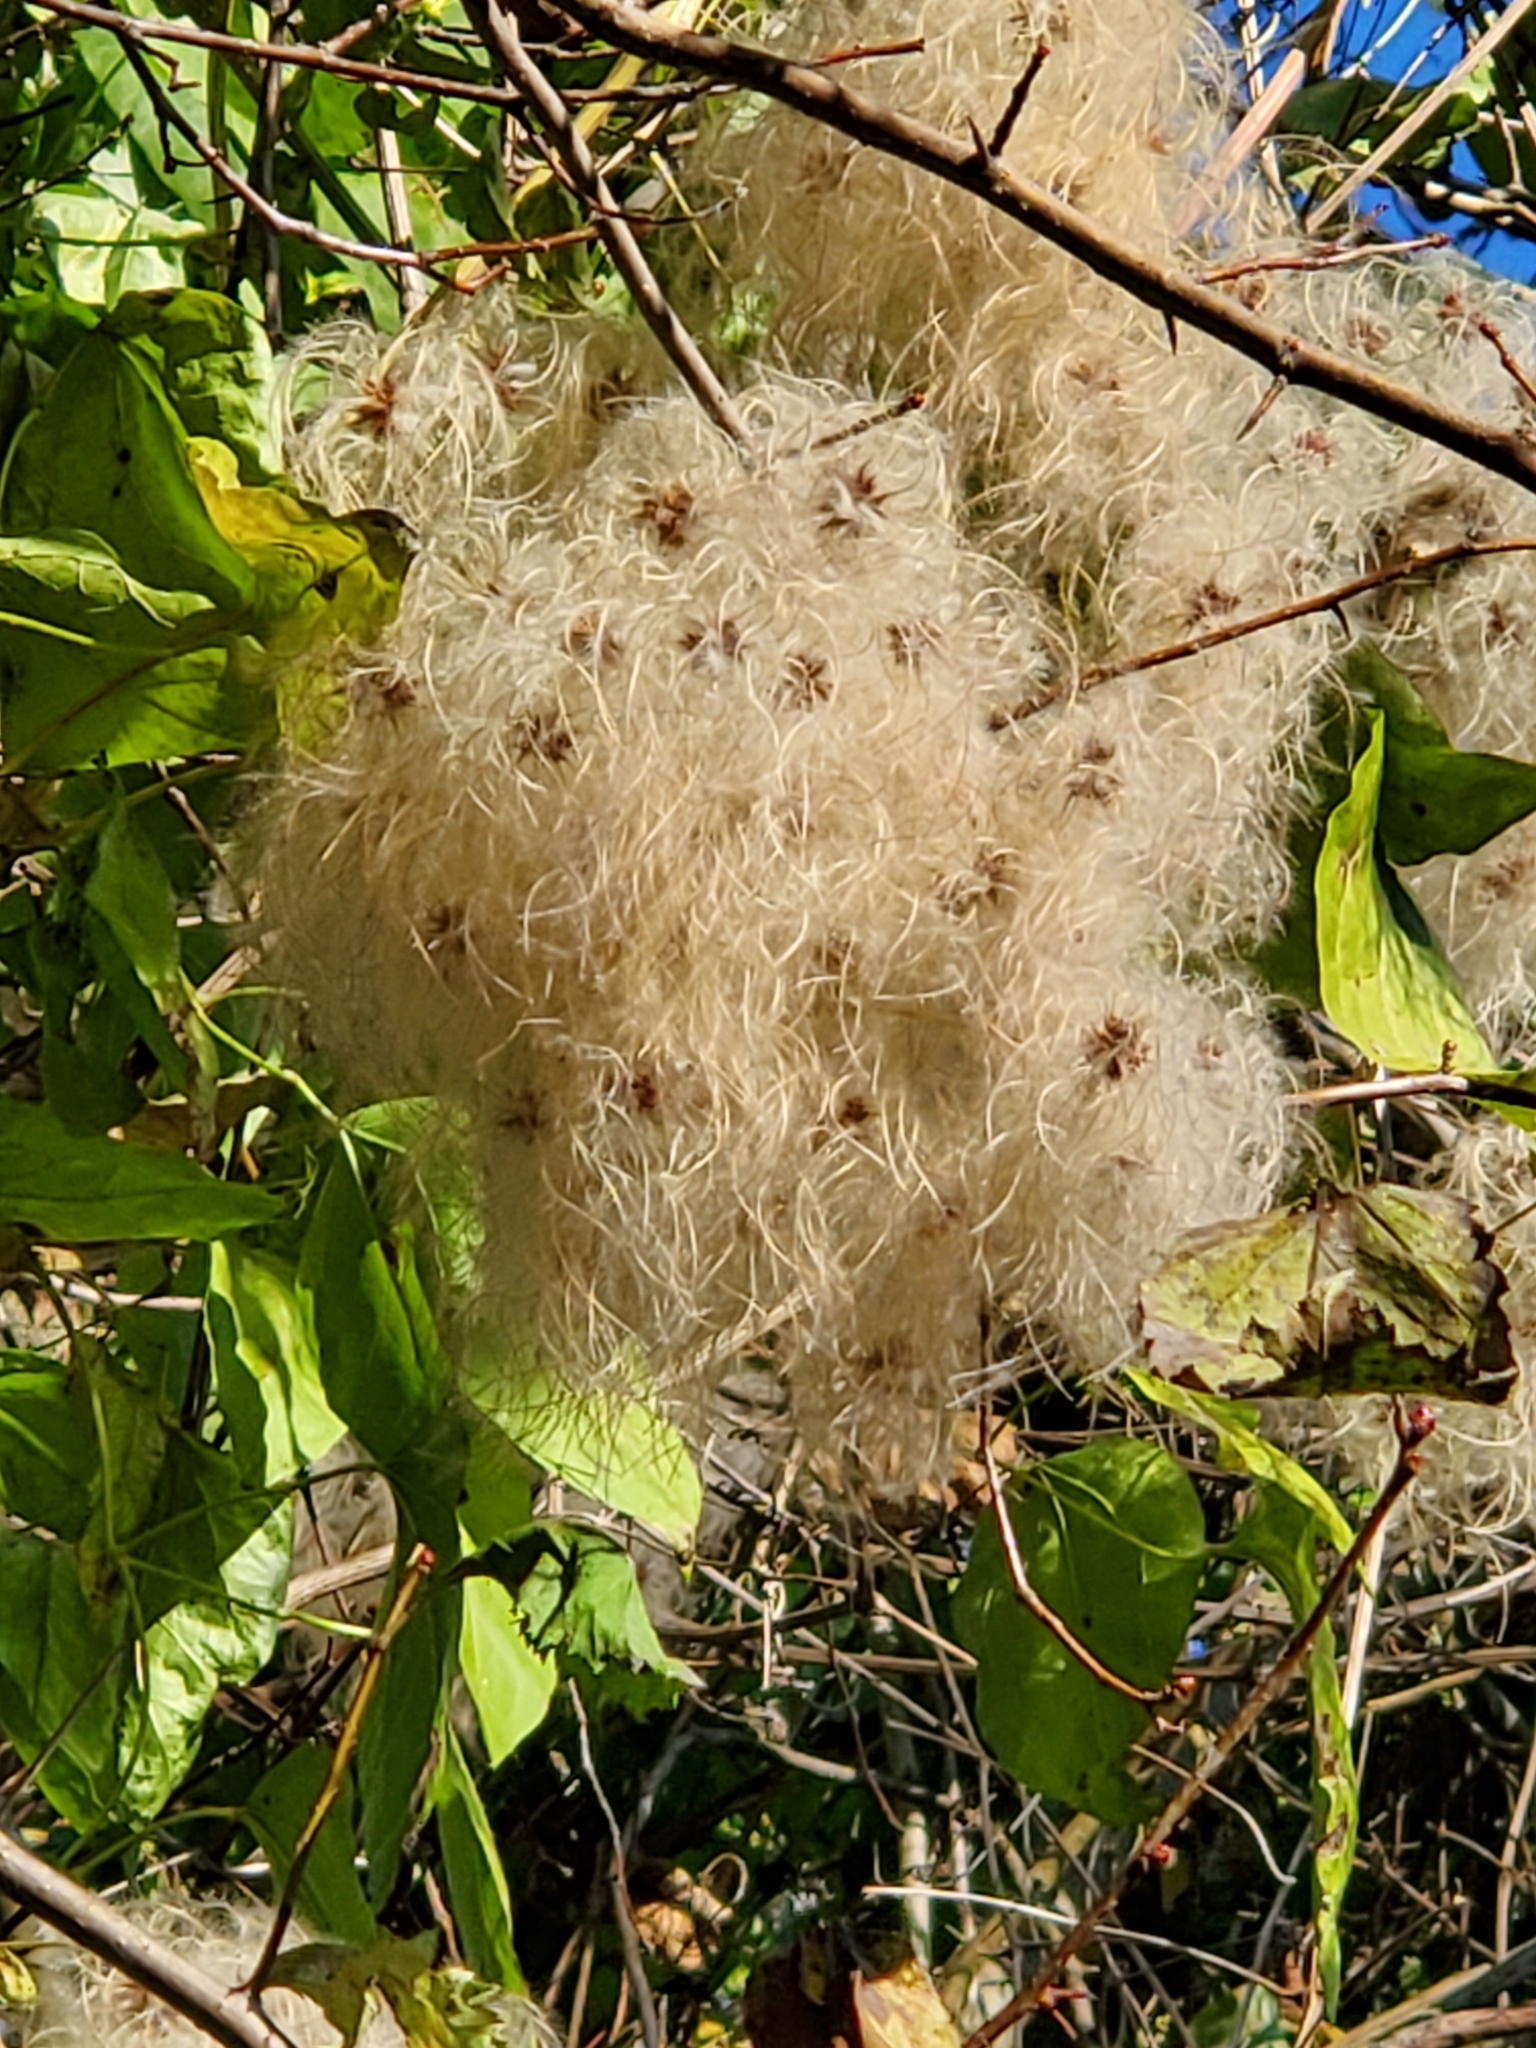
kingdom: Plantae
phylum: Tracheophyta
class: Magnoliopsida
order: Ranunculales
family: Ranunculaceae
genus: Clematis
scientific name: Clematis vitalba
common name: Evergreen clematis
